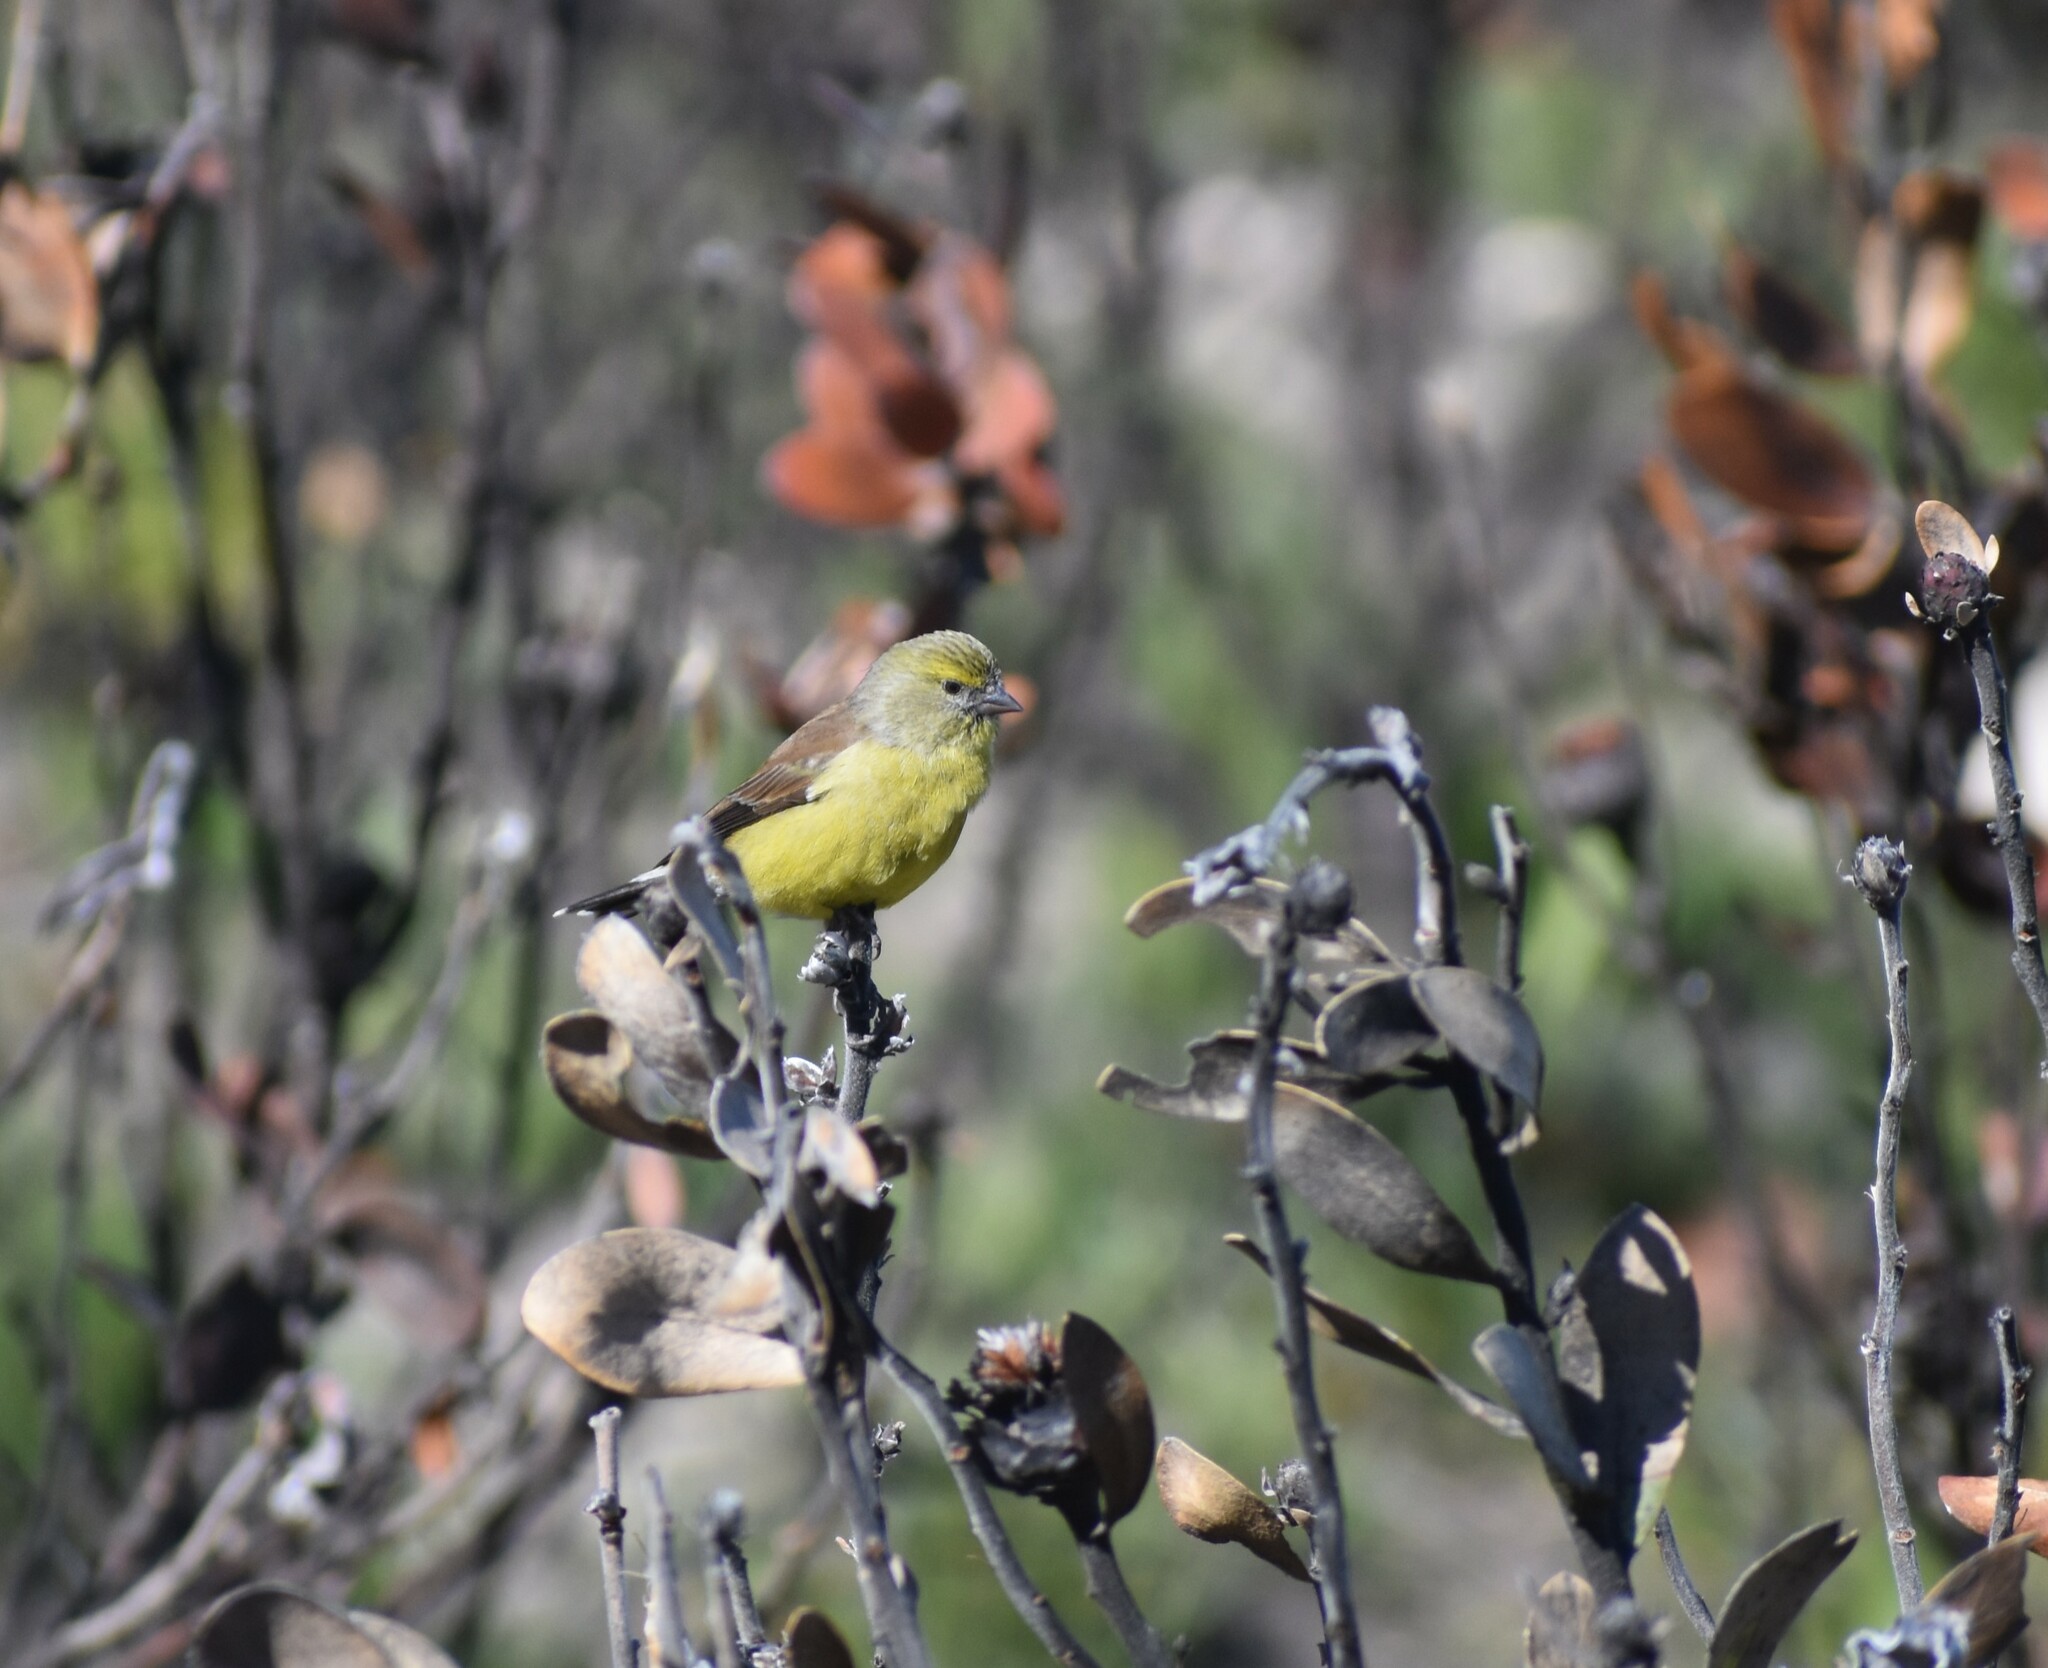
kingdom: Animalia
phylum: Chordata
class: Aves
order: Passeriformes
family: Fringillidae
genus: Crithagra
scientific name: Crithagra totta
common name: Cape siskin
